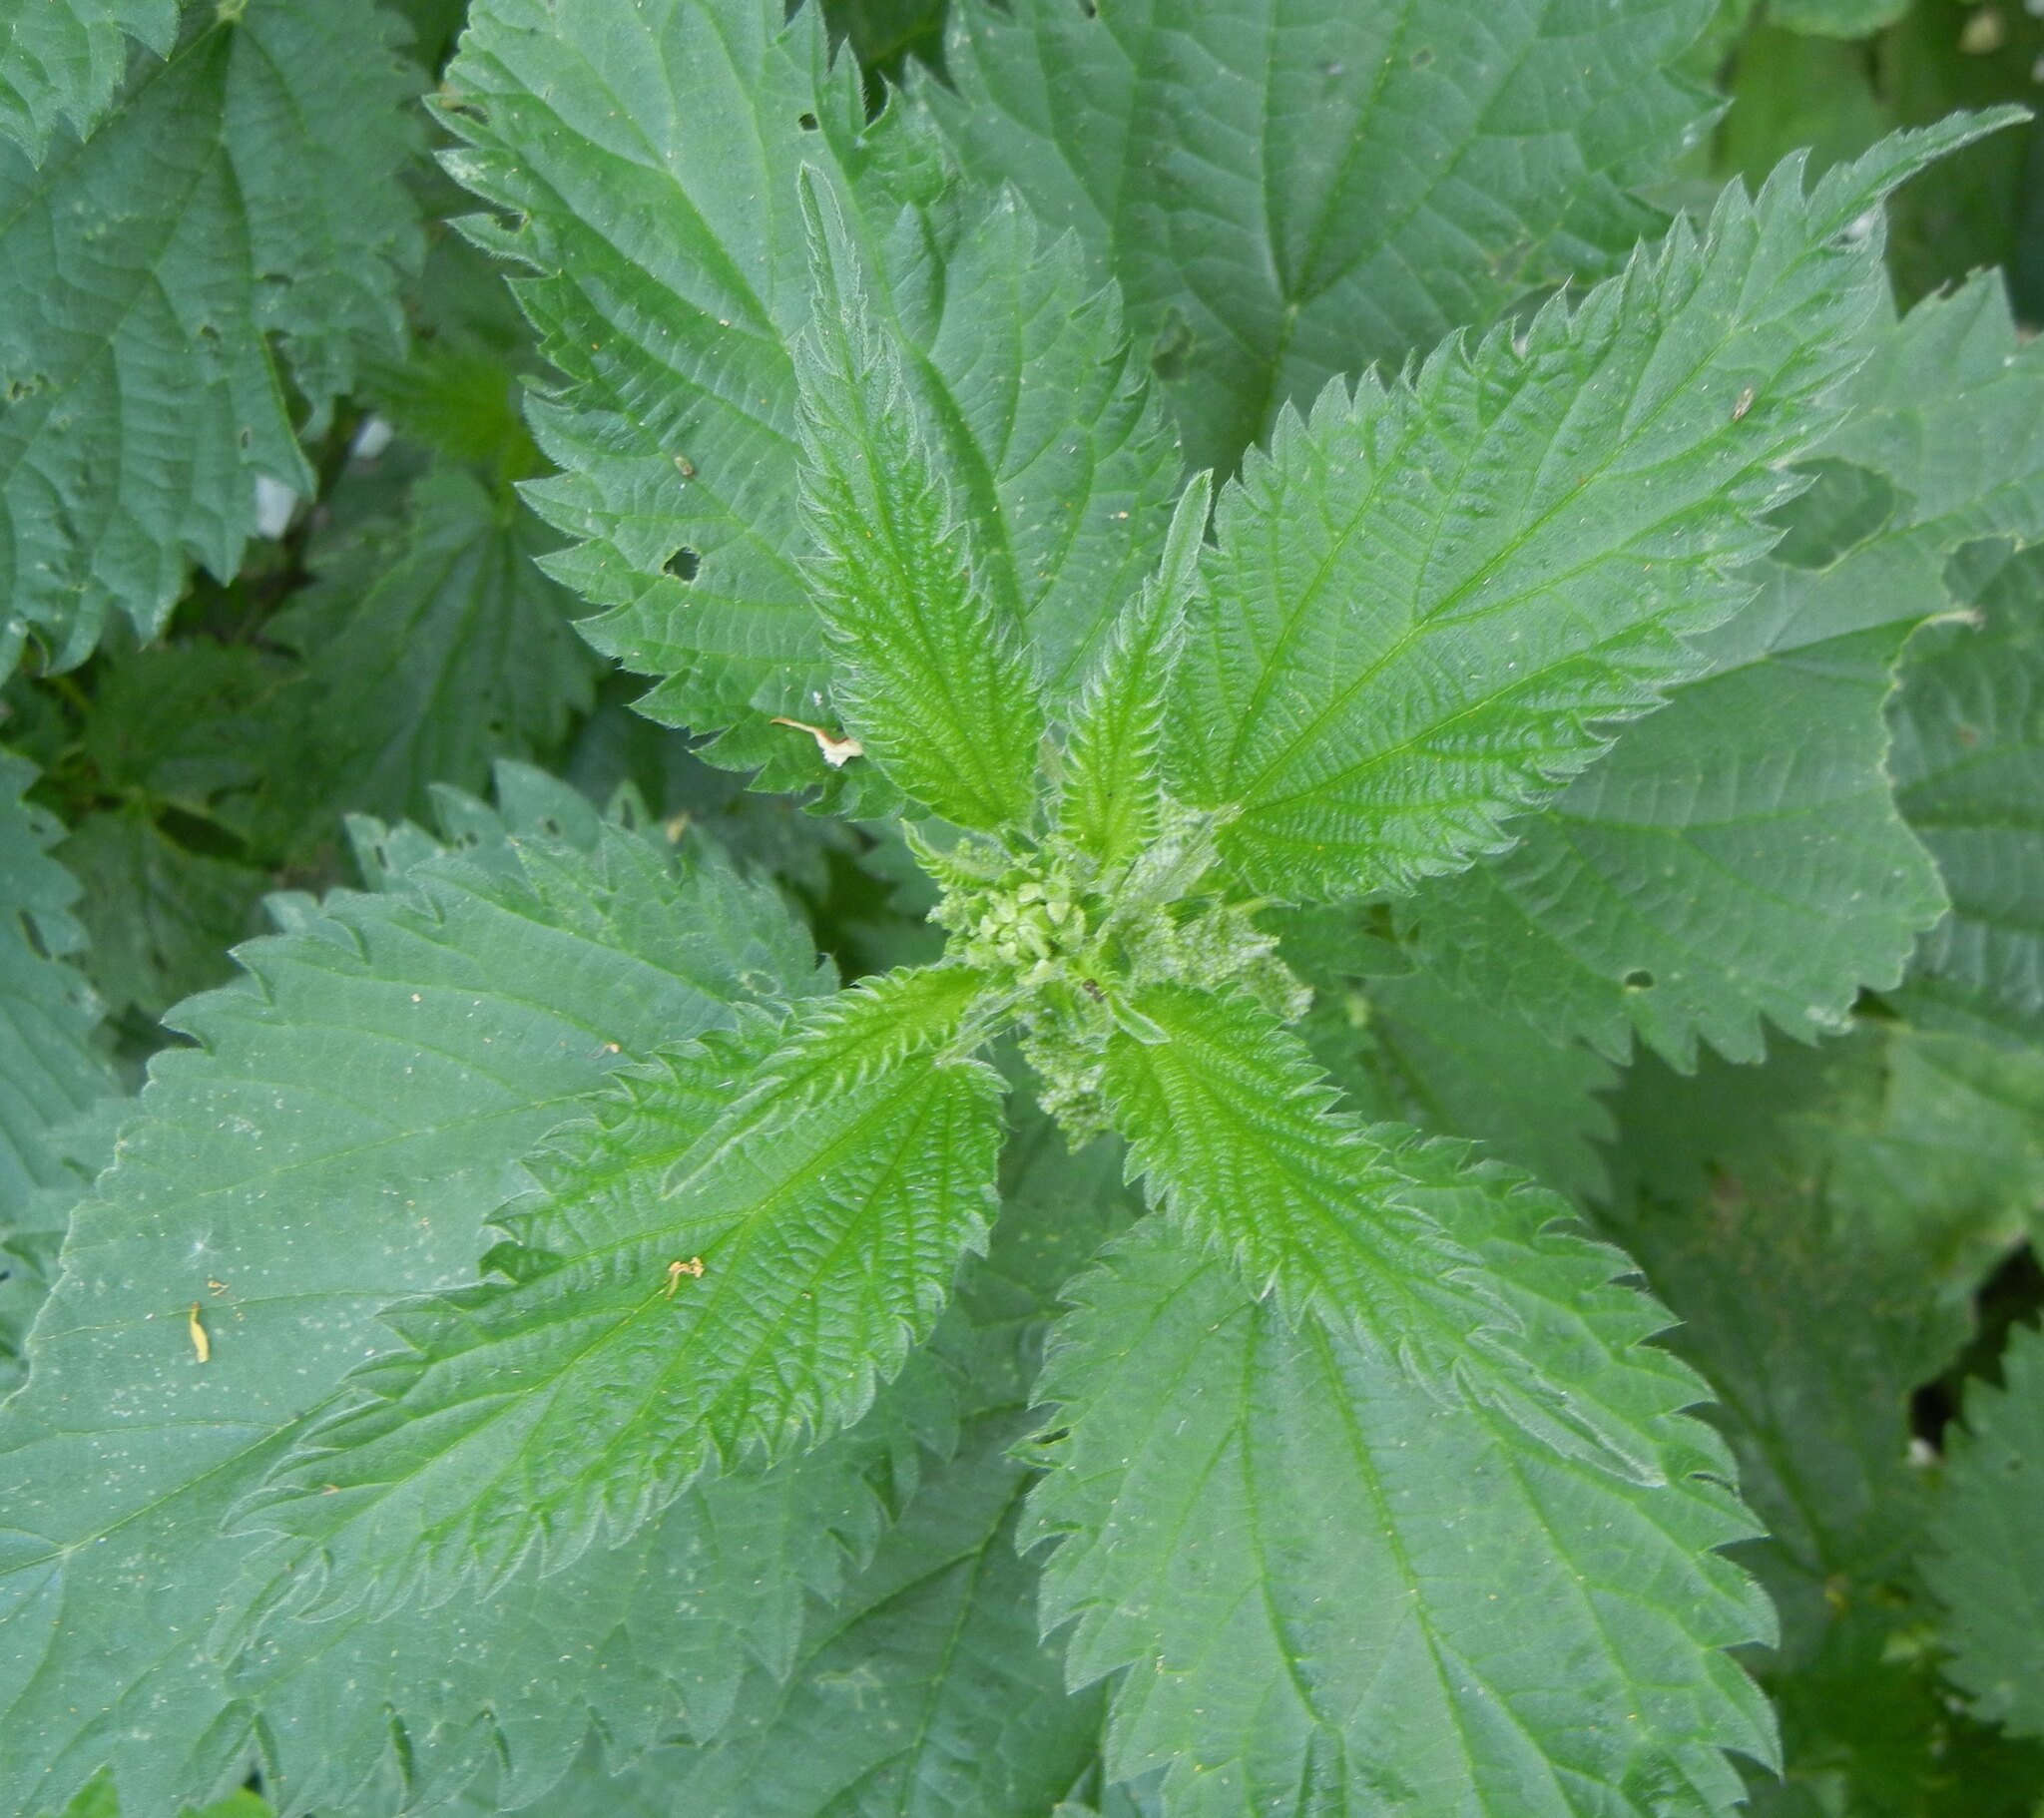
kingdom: Plantae
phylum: Tracheophyta
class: Magnoliopsida
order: Rosales
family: Urticaceae
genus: Urtica
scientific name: Urtica dioica
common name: Common nettle
